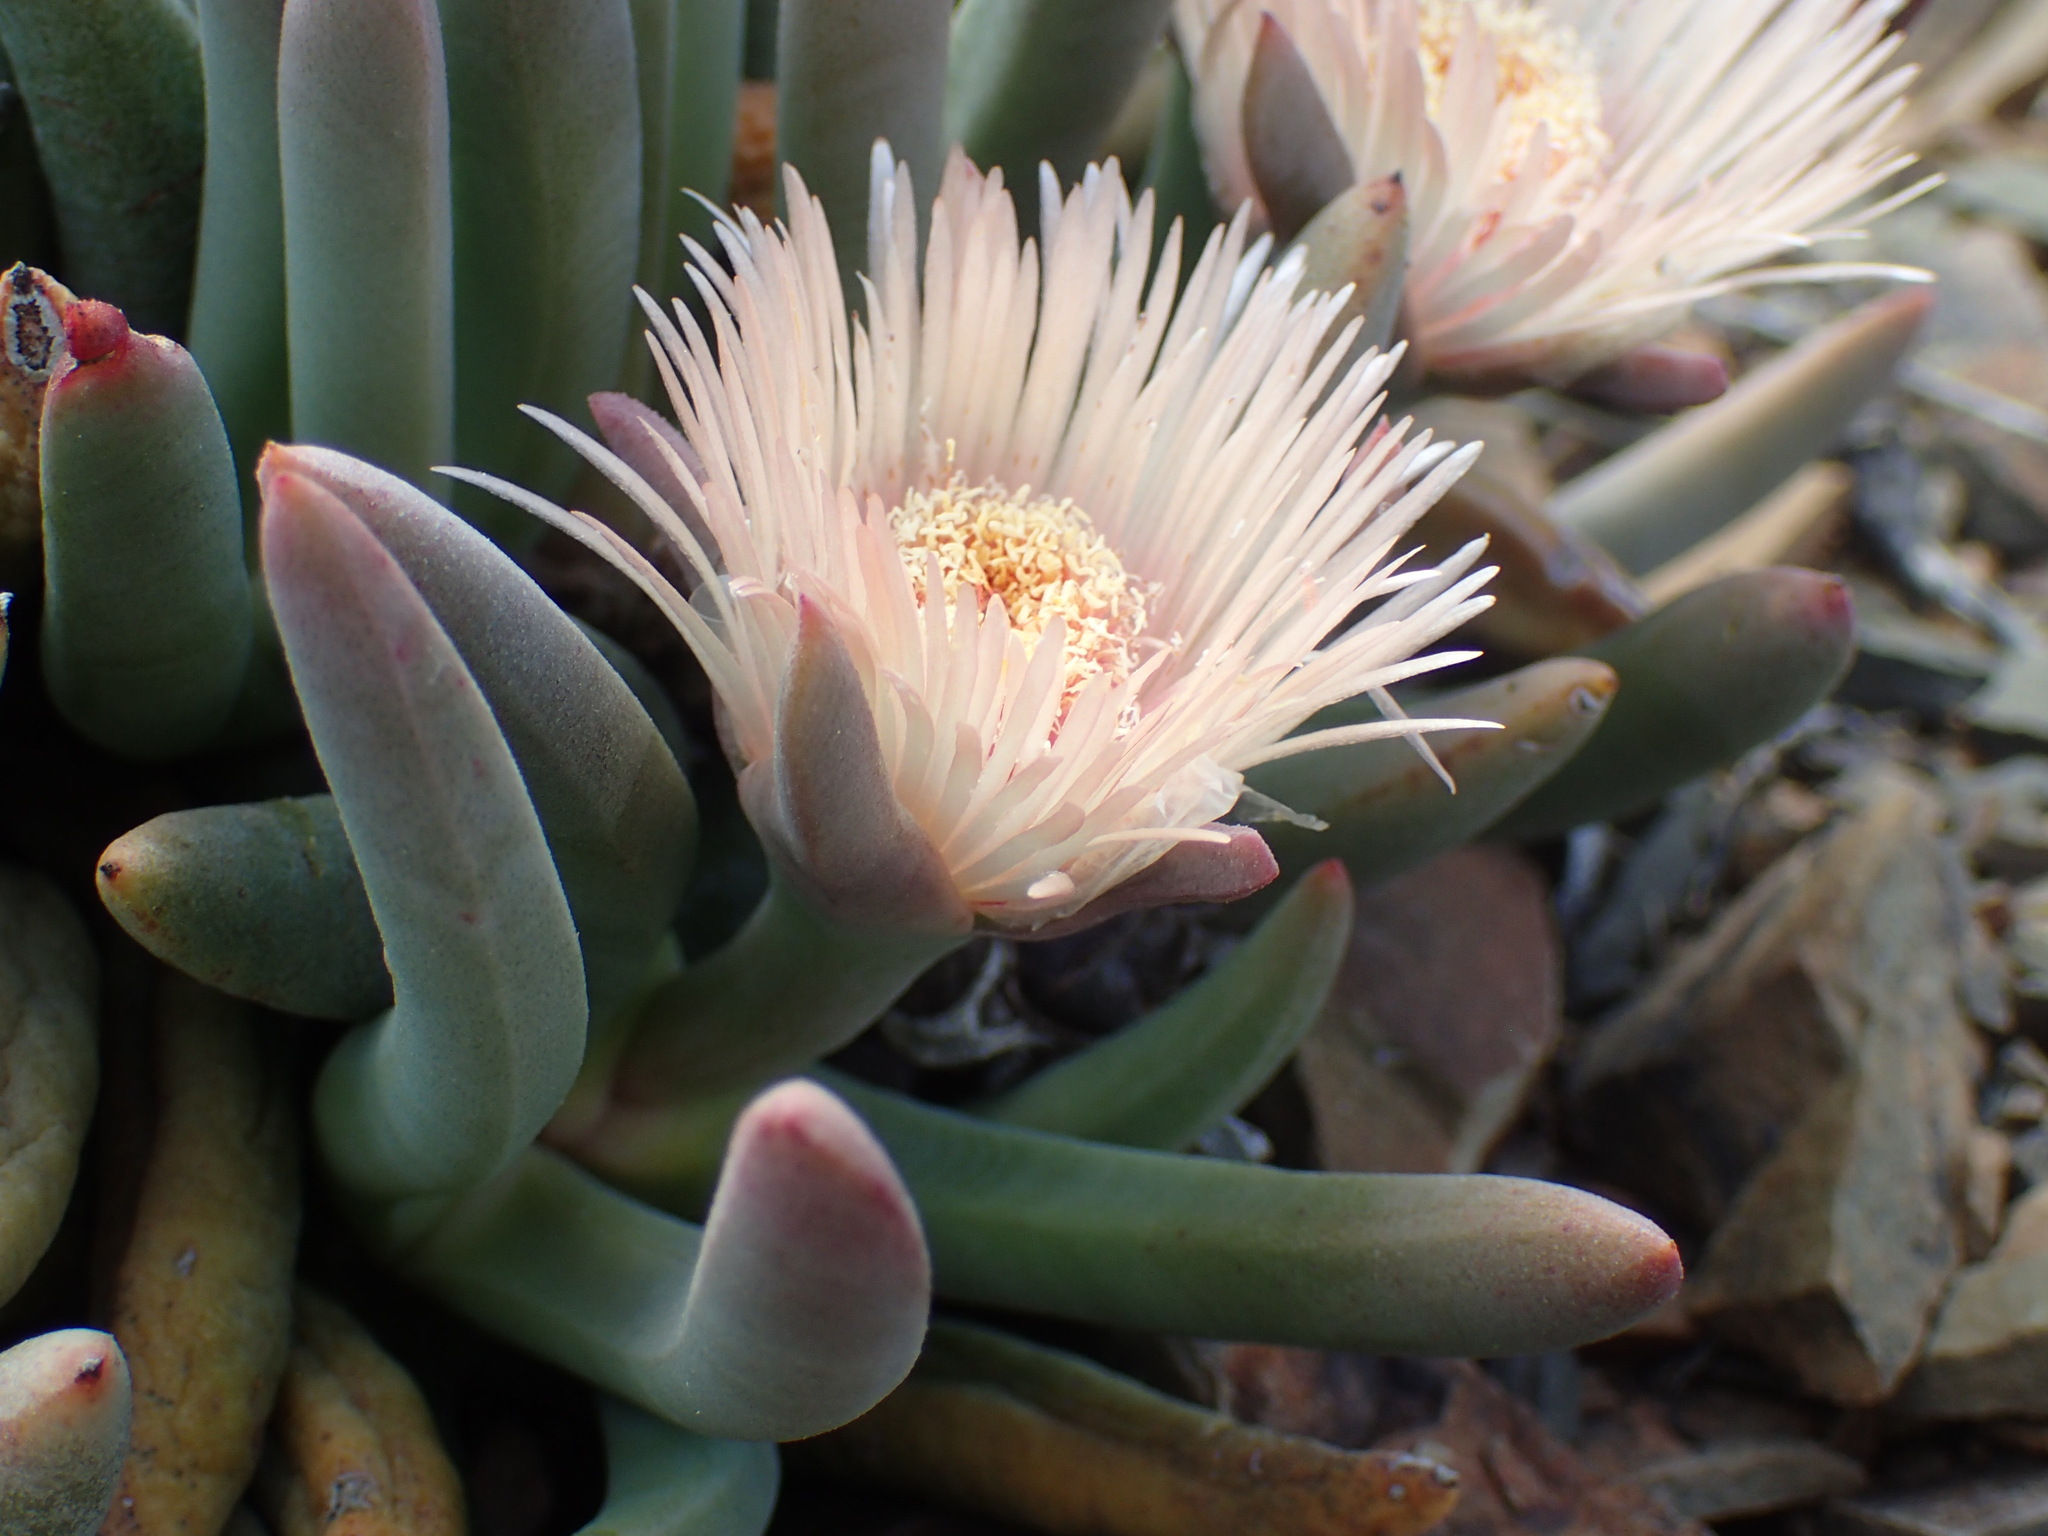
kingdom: Plantae
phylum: Tracheophyta
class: Magnoliopsida
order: Caryophyllales
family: Aizoaceae
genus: Cylindrophyllum
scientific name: Cylindrophyllum tugwelliae
